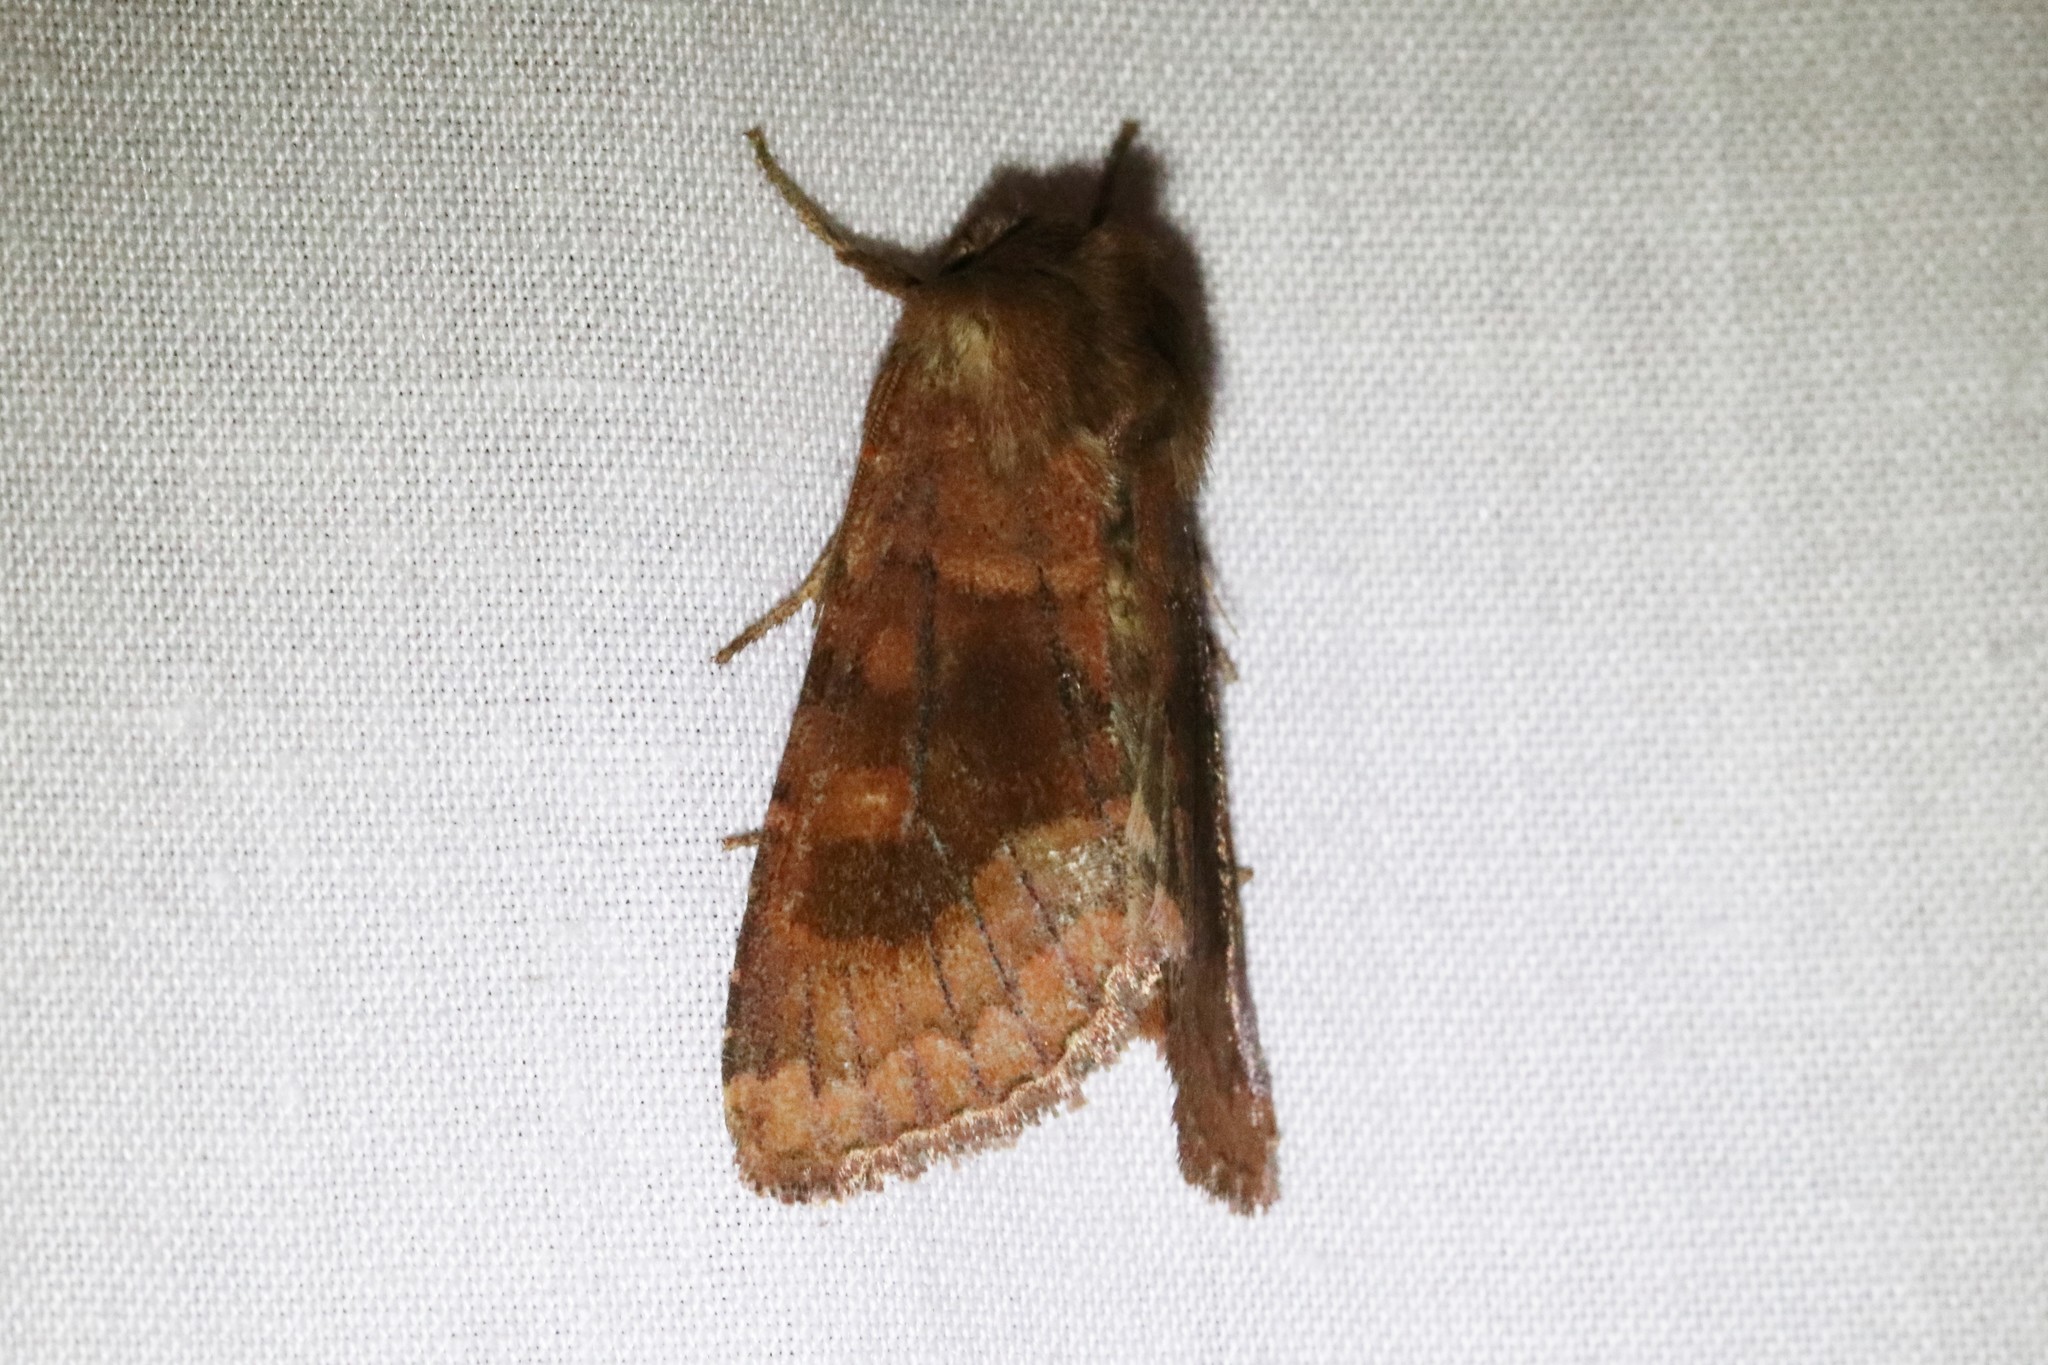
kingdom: Animalia
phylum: Arthropoda
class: Insecta
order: Lepidoptera
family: Noctuidae
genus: Nephelodes
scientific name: Nephelodes minians
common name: Bronzed cutworm
